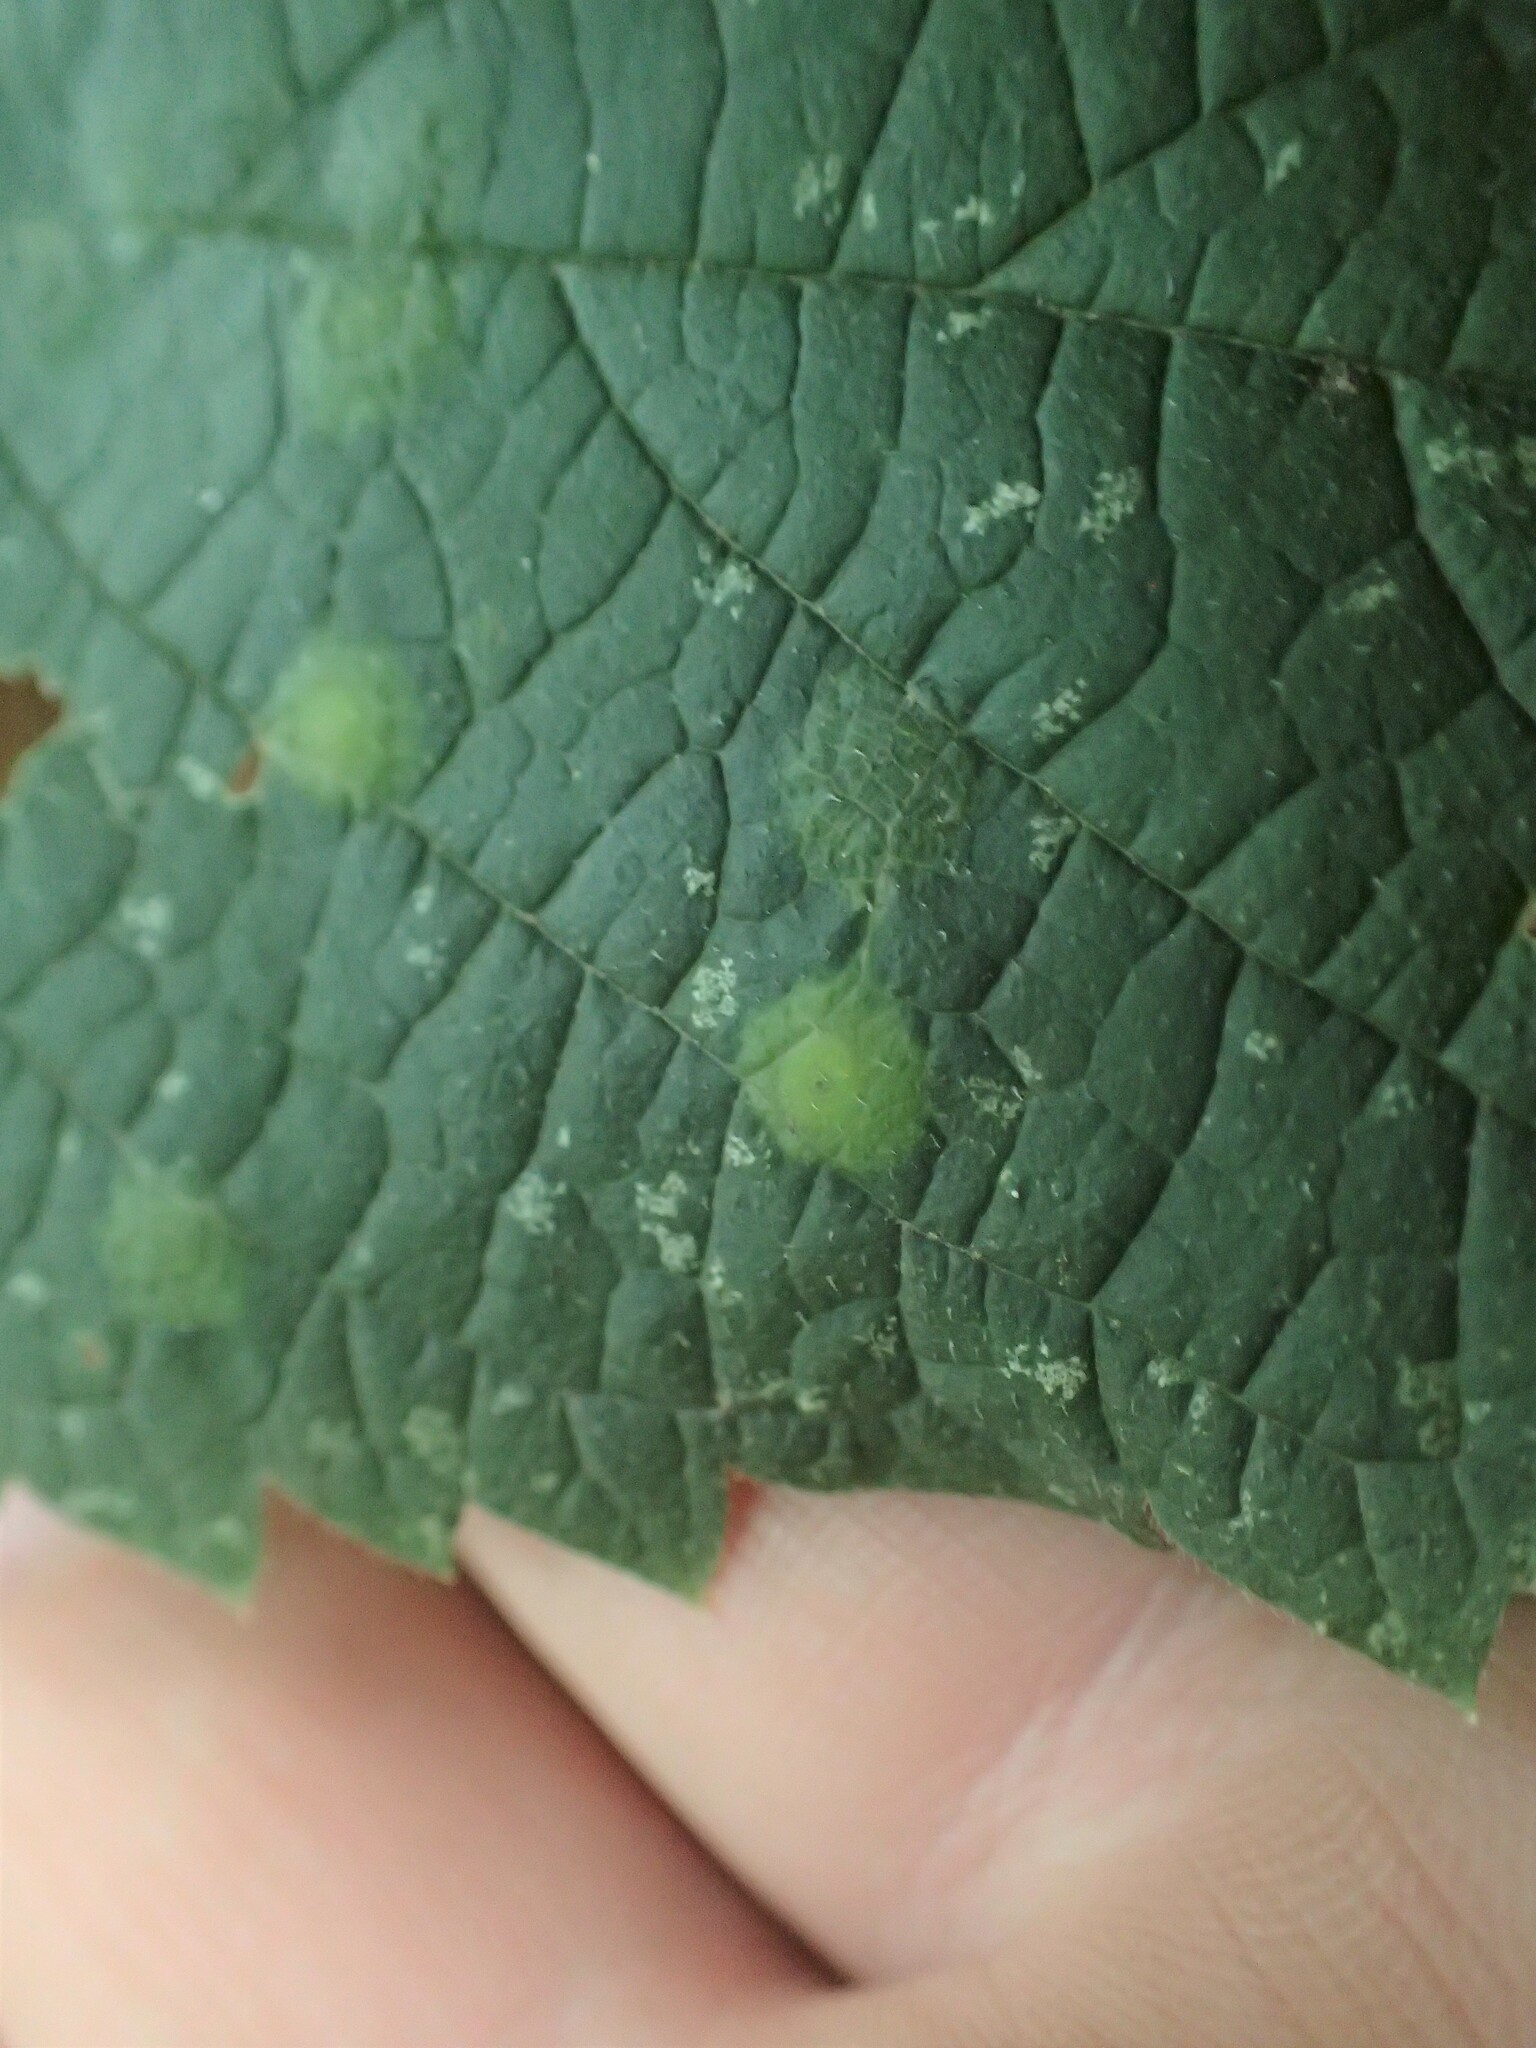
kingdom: Animalia
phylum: Arthropoda
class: Insecta
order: Hemiptera
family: Aphalaridae
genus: Pachypsylla
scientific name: Pachypsylla celtidisvesicula
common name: Hackberry blister gall psyllid
